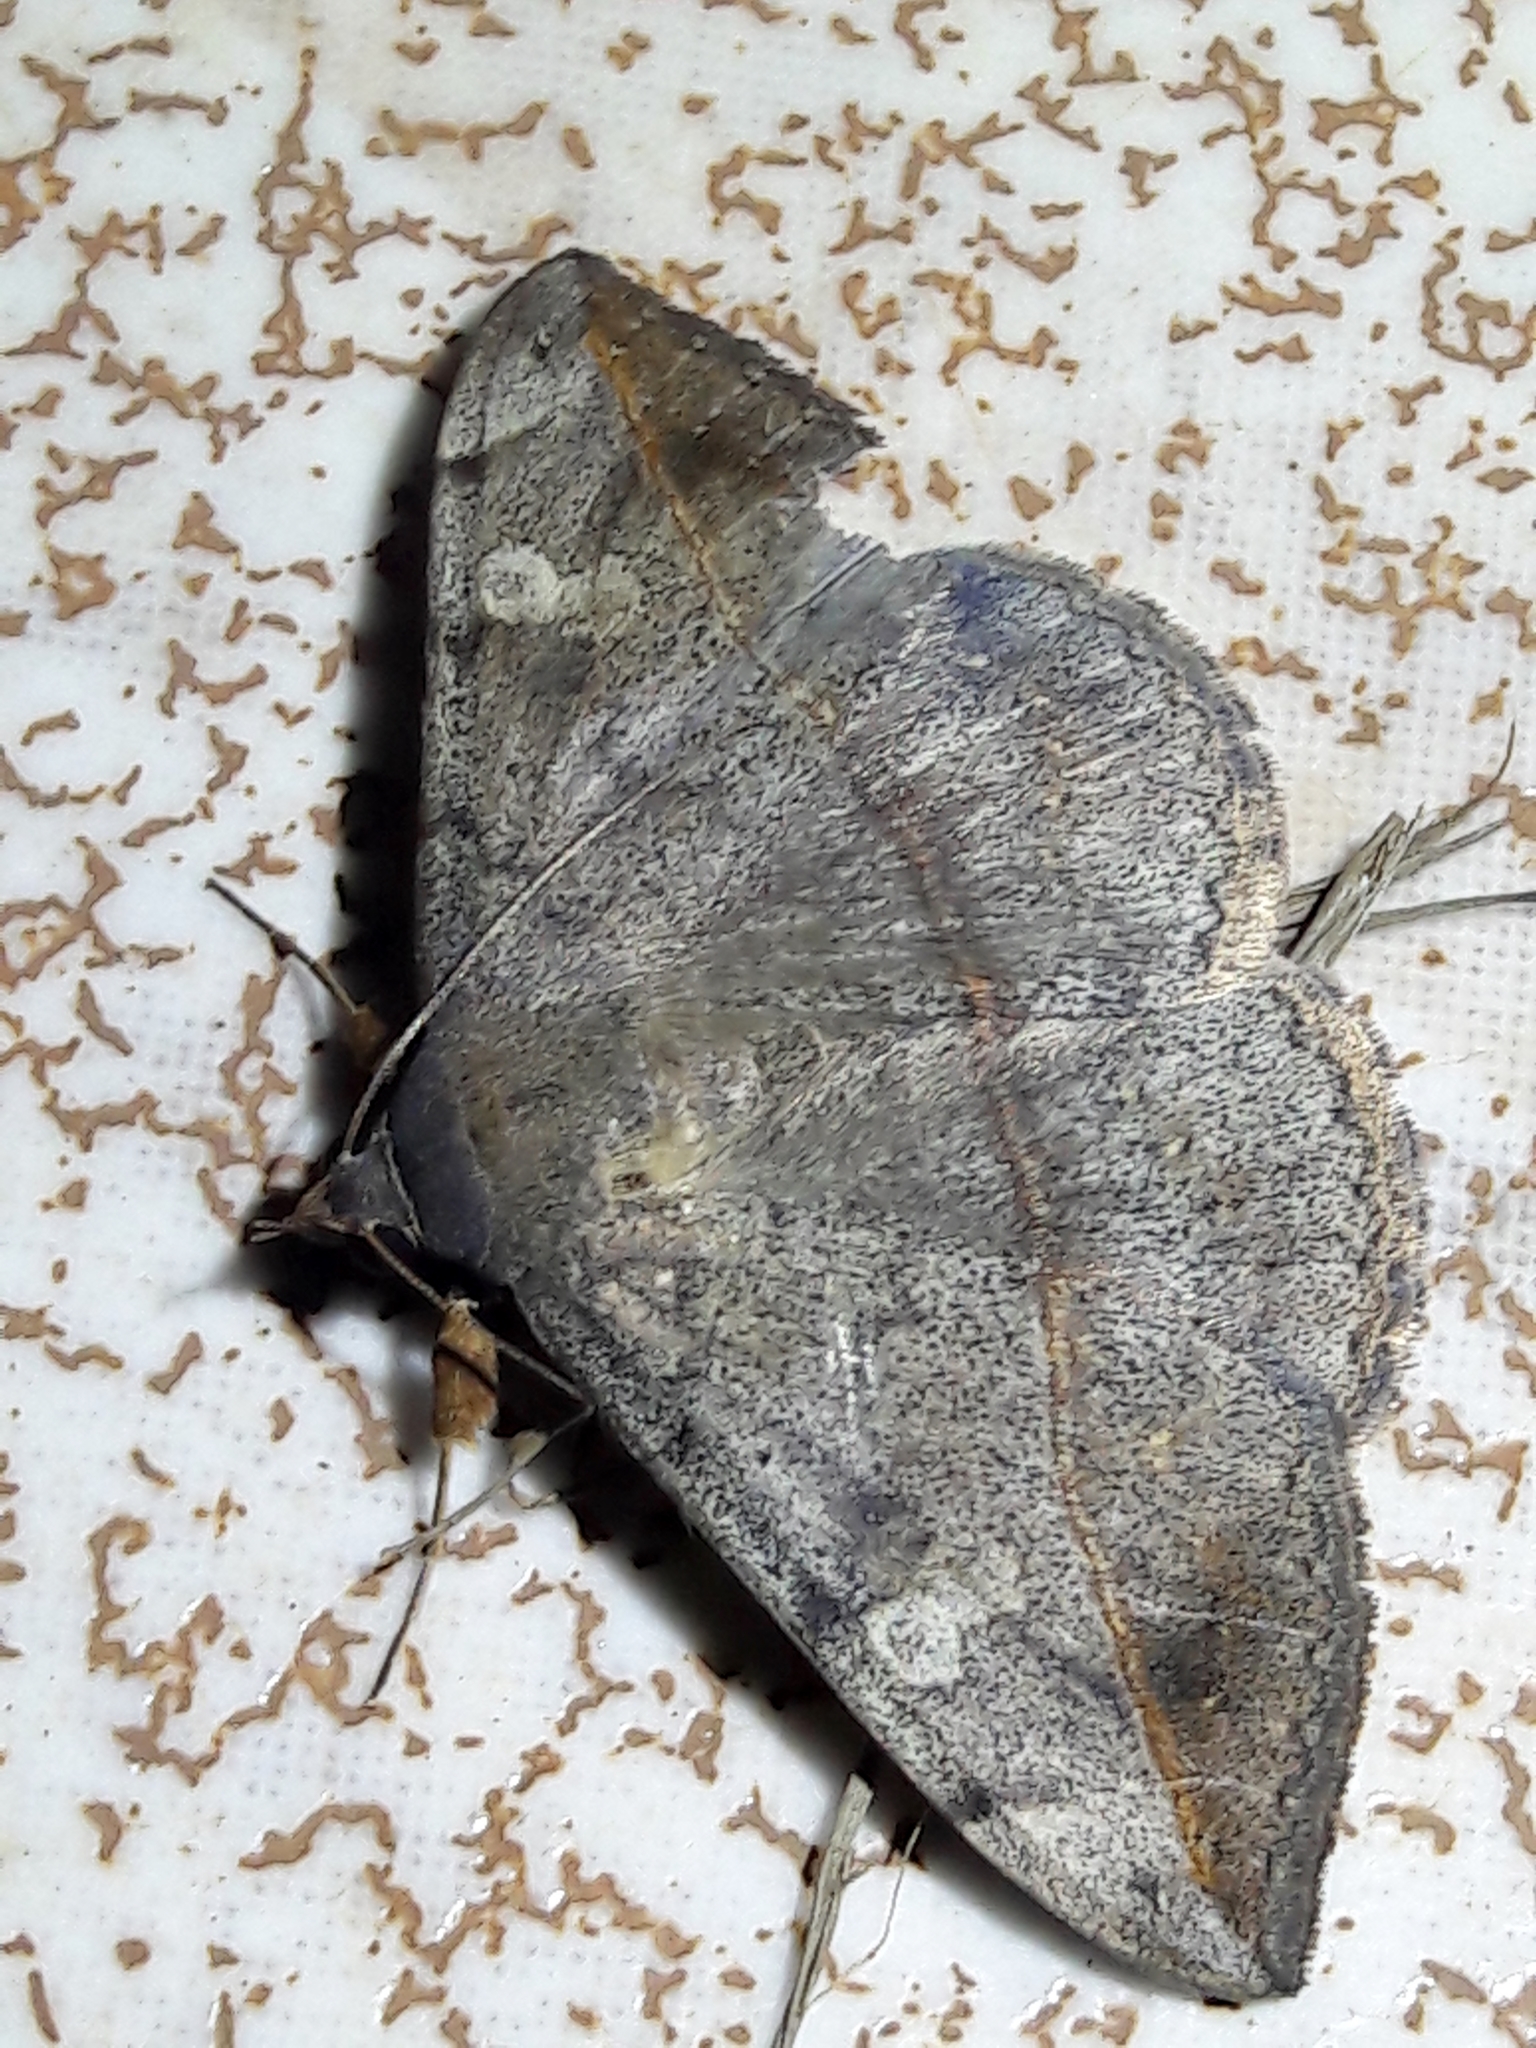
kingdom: Animalia
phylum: Arthropoda
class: Insecta
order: Lepidoptera
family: Erebidae
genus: Anticarsia
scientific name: Anticarsia gemmatalis
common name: Cutworm moth
